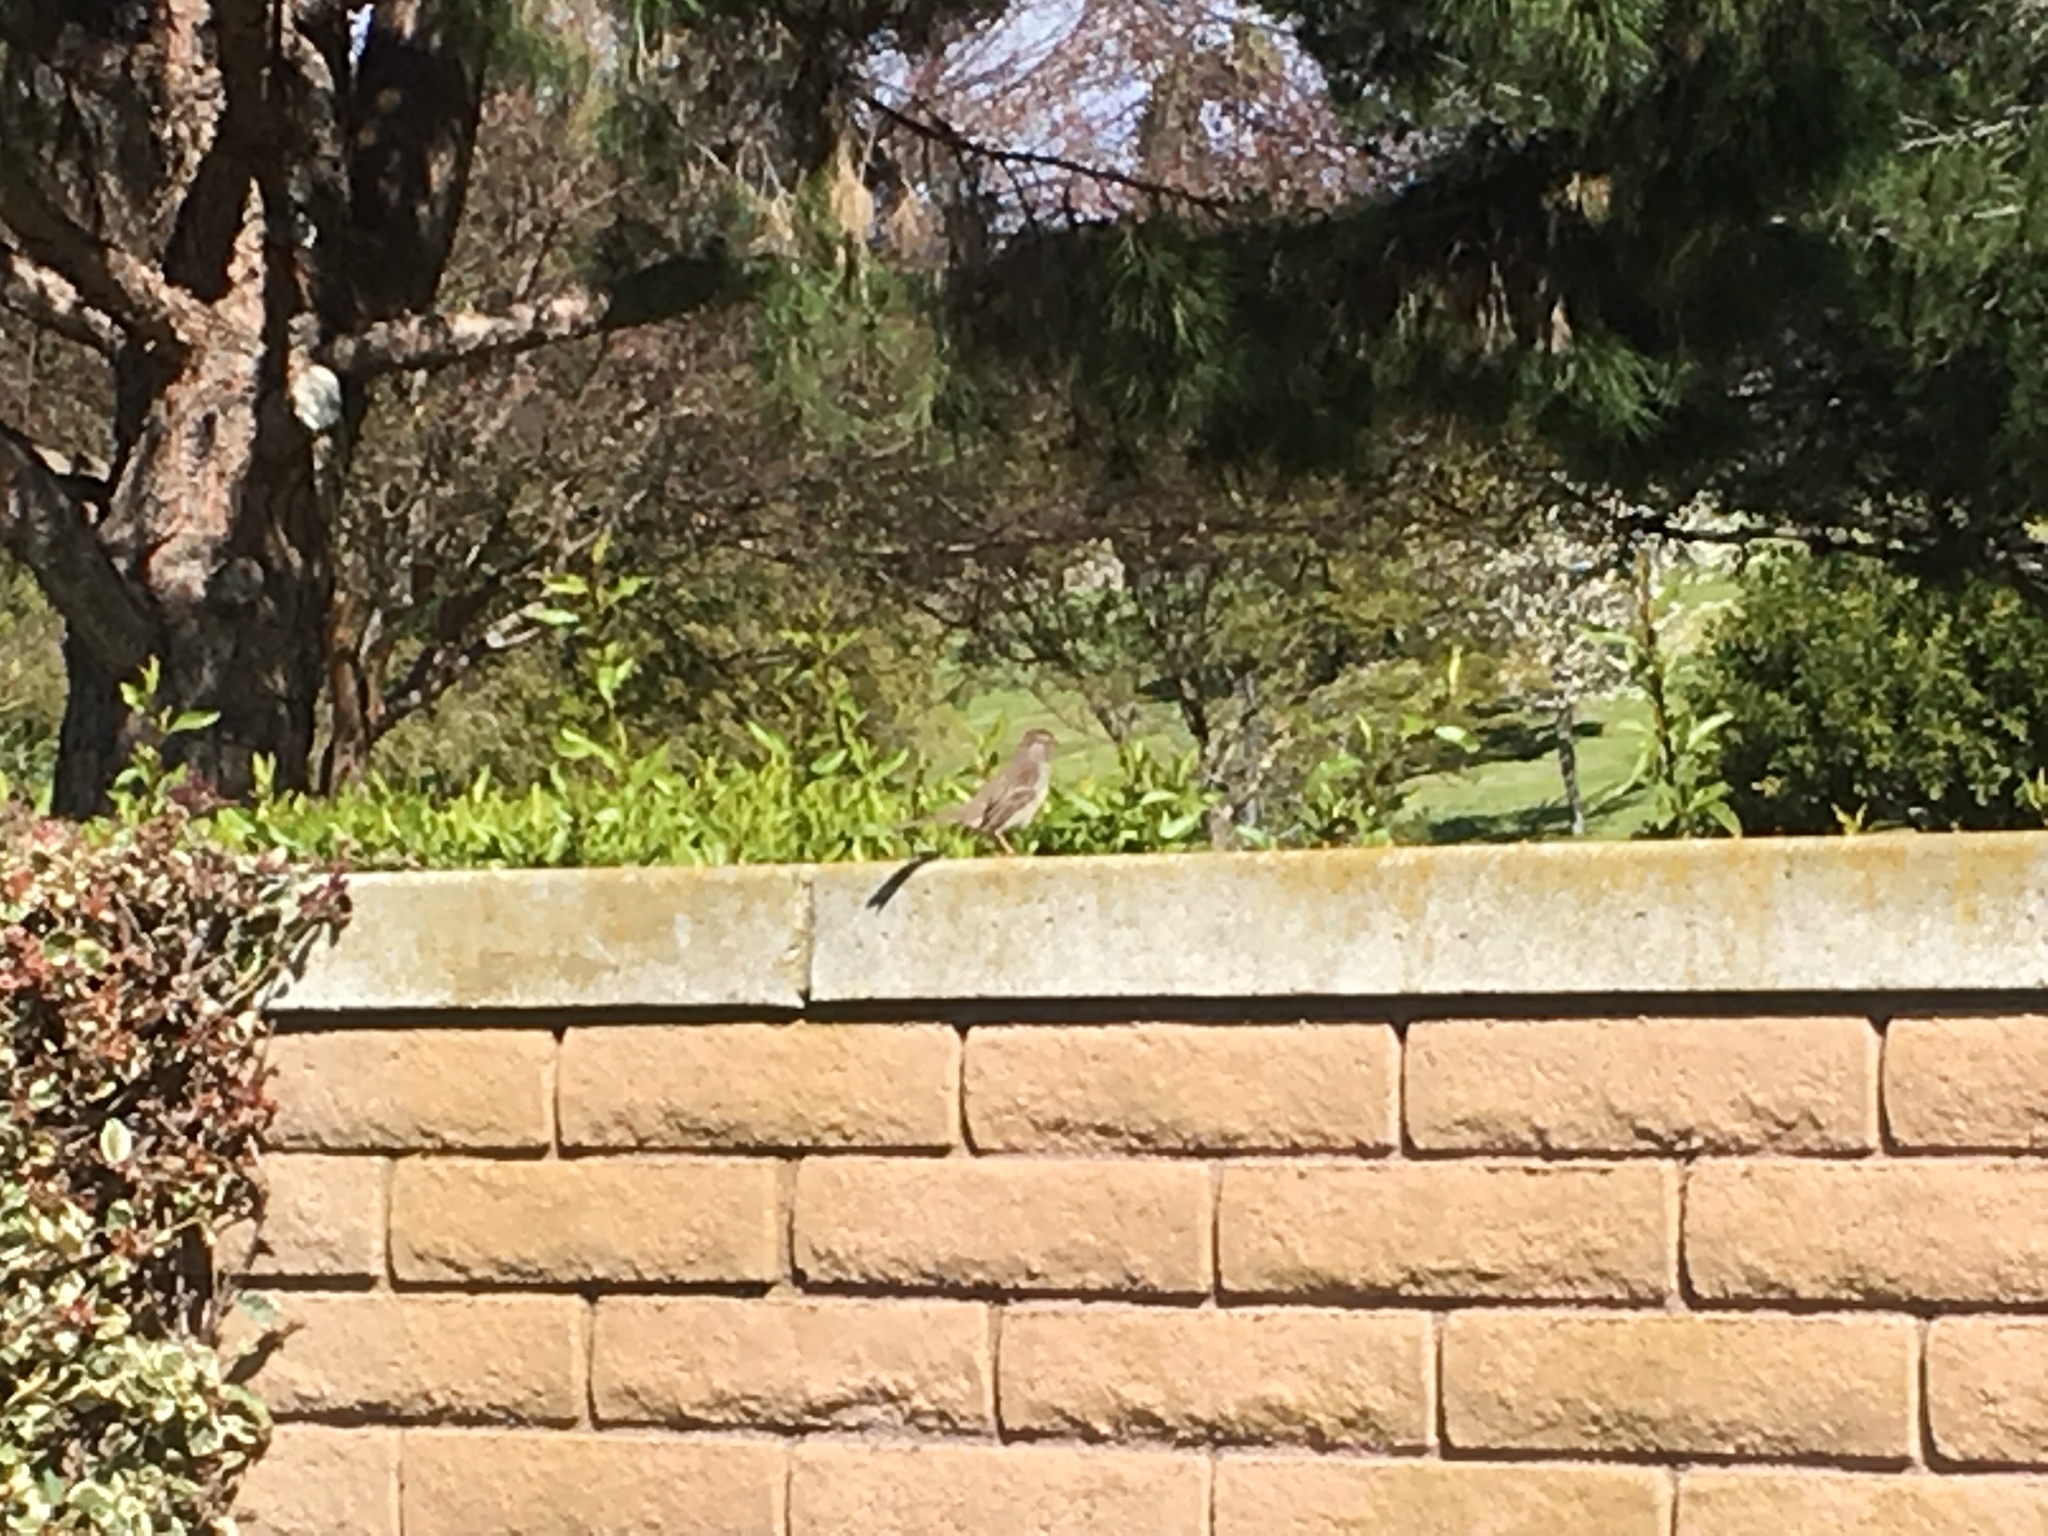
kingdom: Animalia
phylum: Chordata
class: Aves
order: Passeriformes
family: Passerellidae
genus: Zonotrichia
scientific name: Zonotrichia leucophrys
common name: White-crowned sparrow
